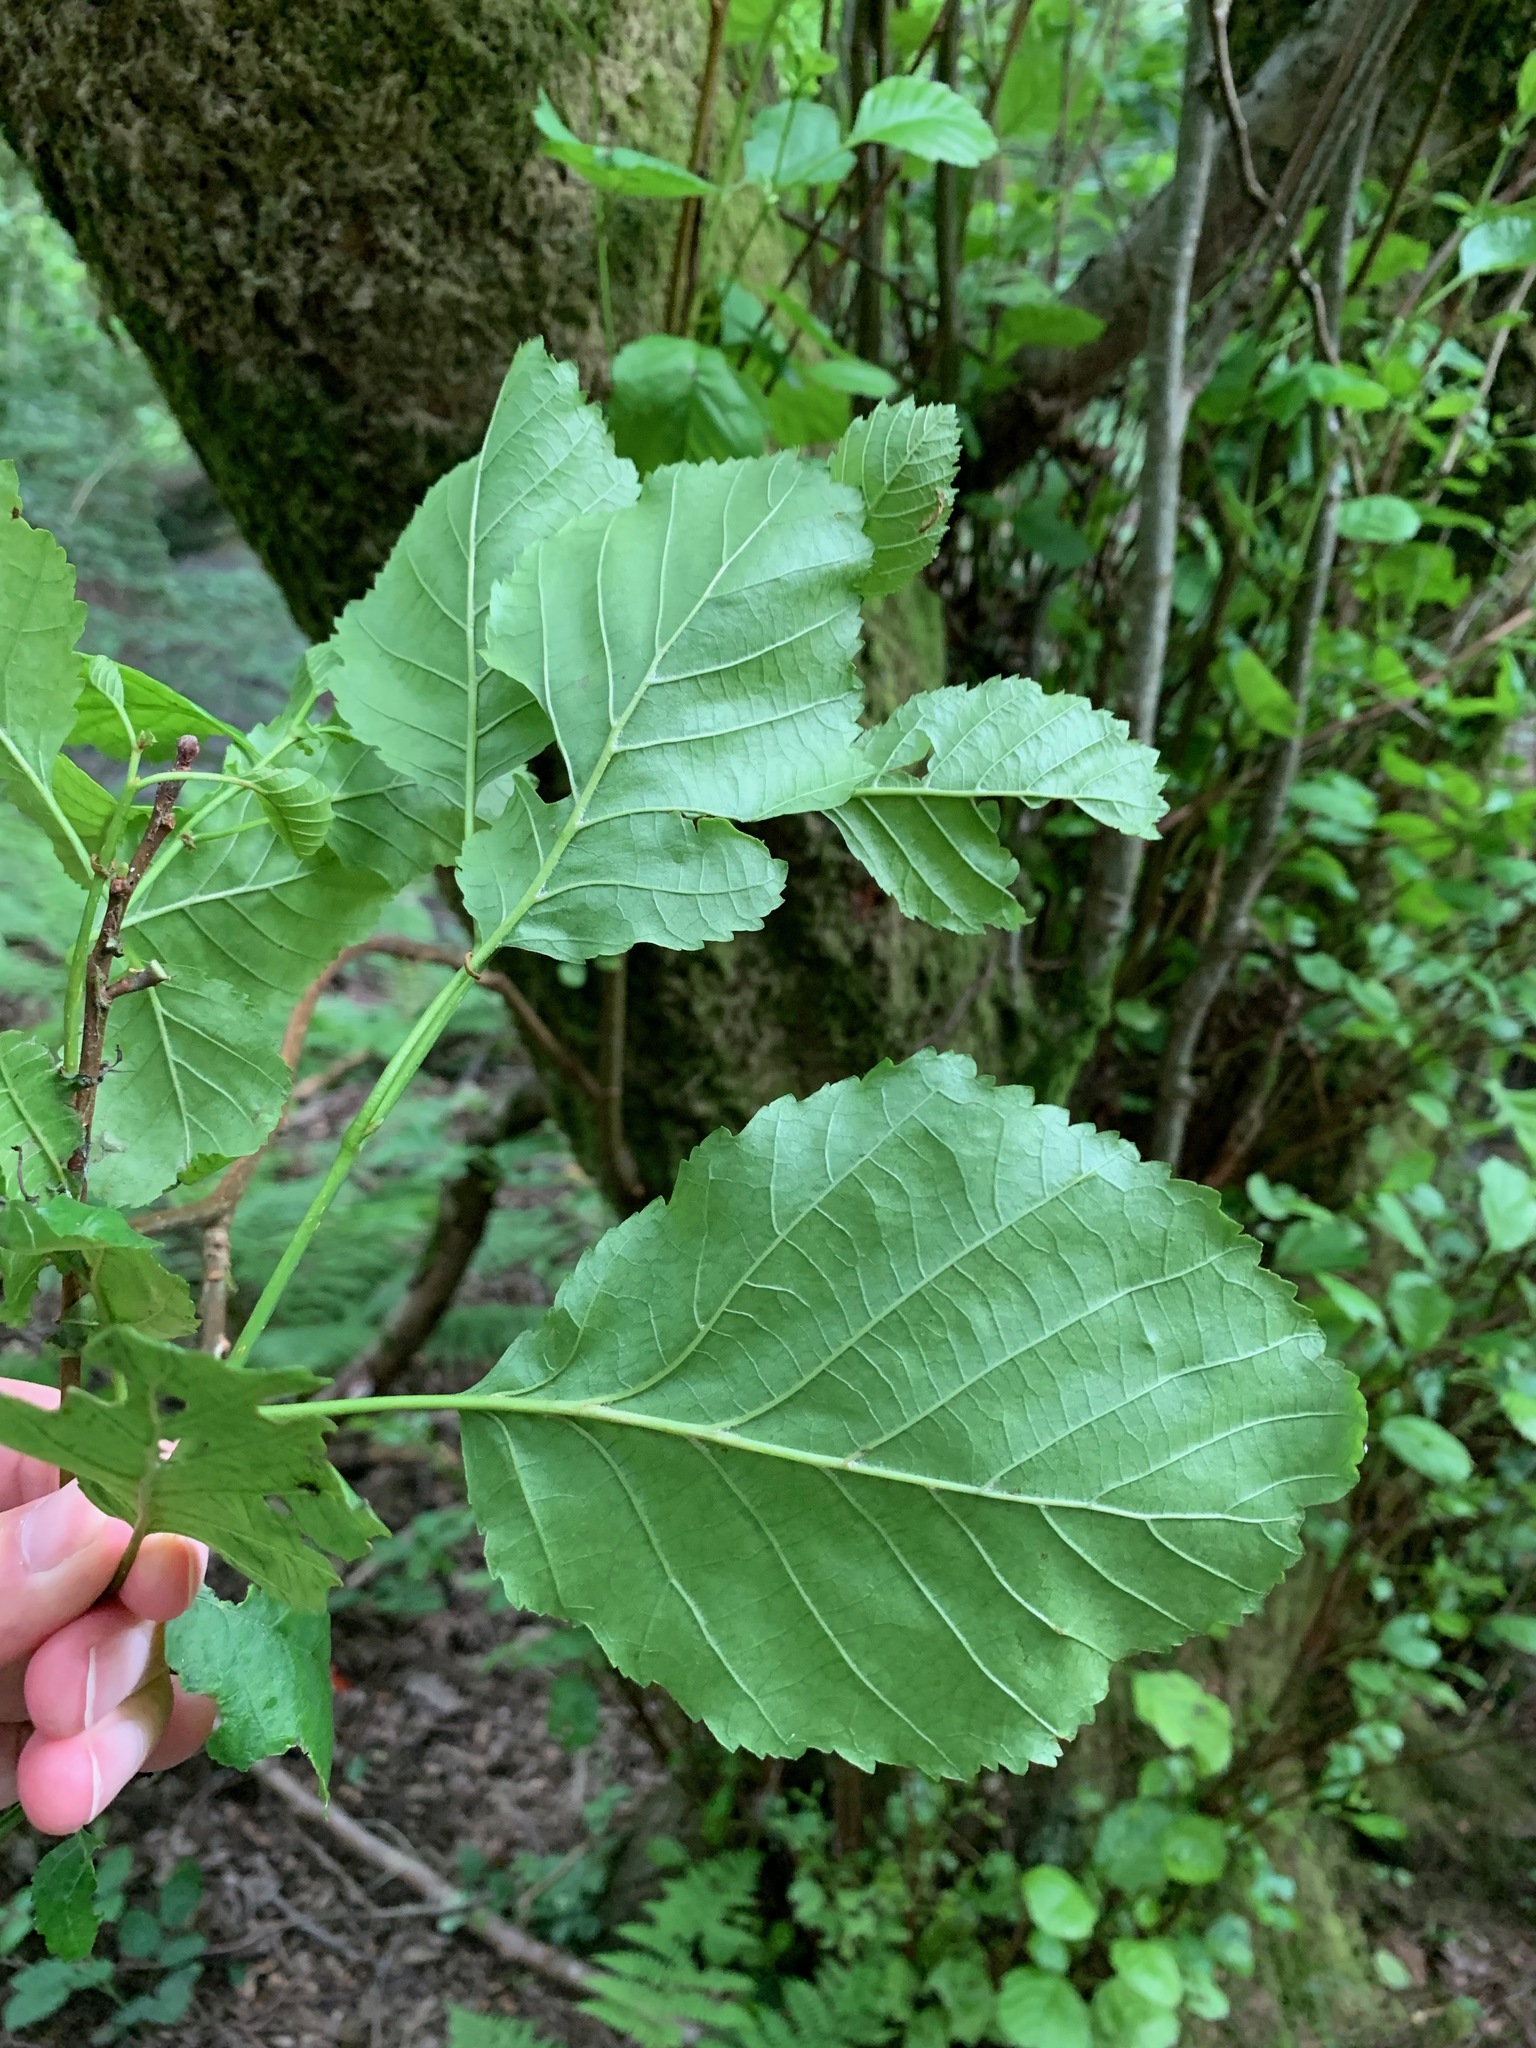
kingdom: Plantae
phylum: Tracheophyta
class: Magnoliopsida
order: Fagales
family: Betulaceae
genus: Alnus
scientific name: Alnus glutinosa
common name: Black alder
